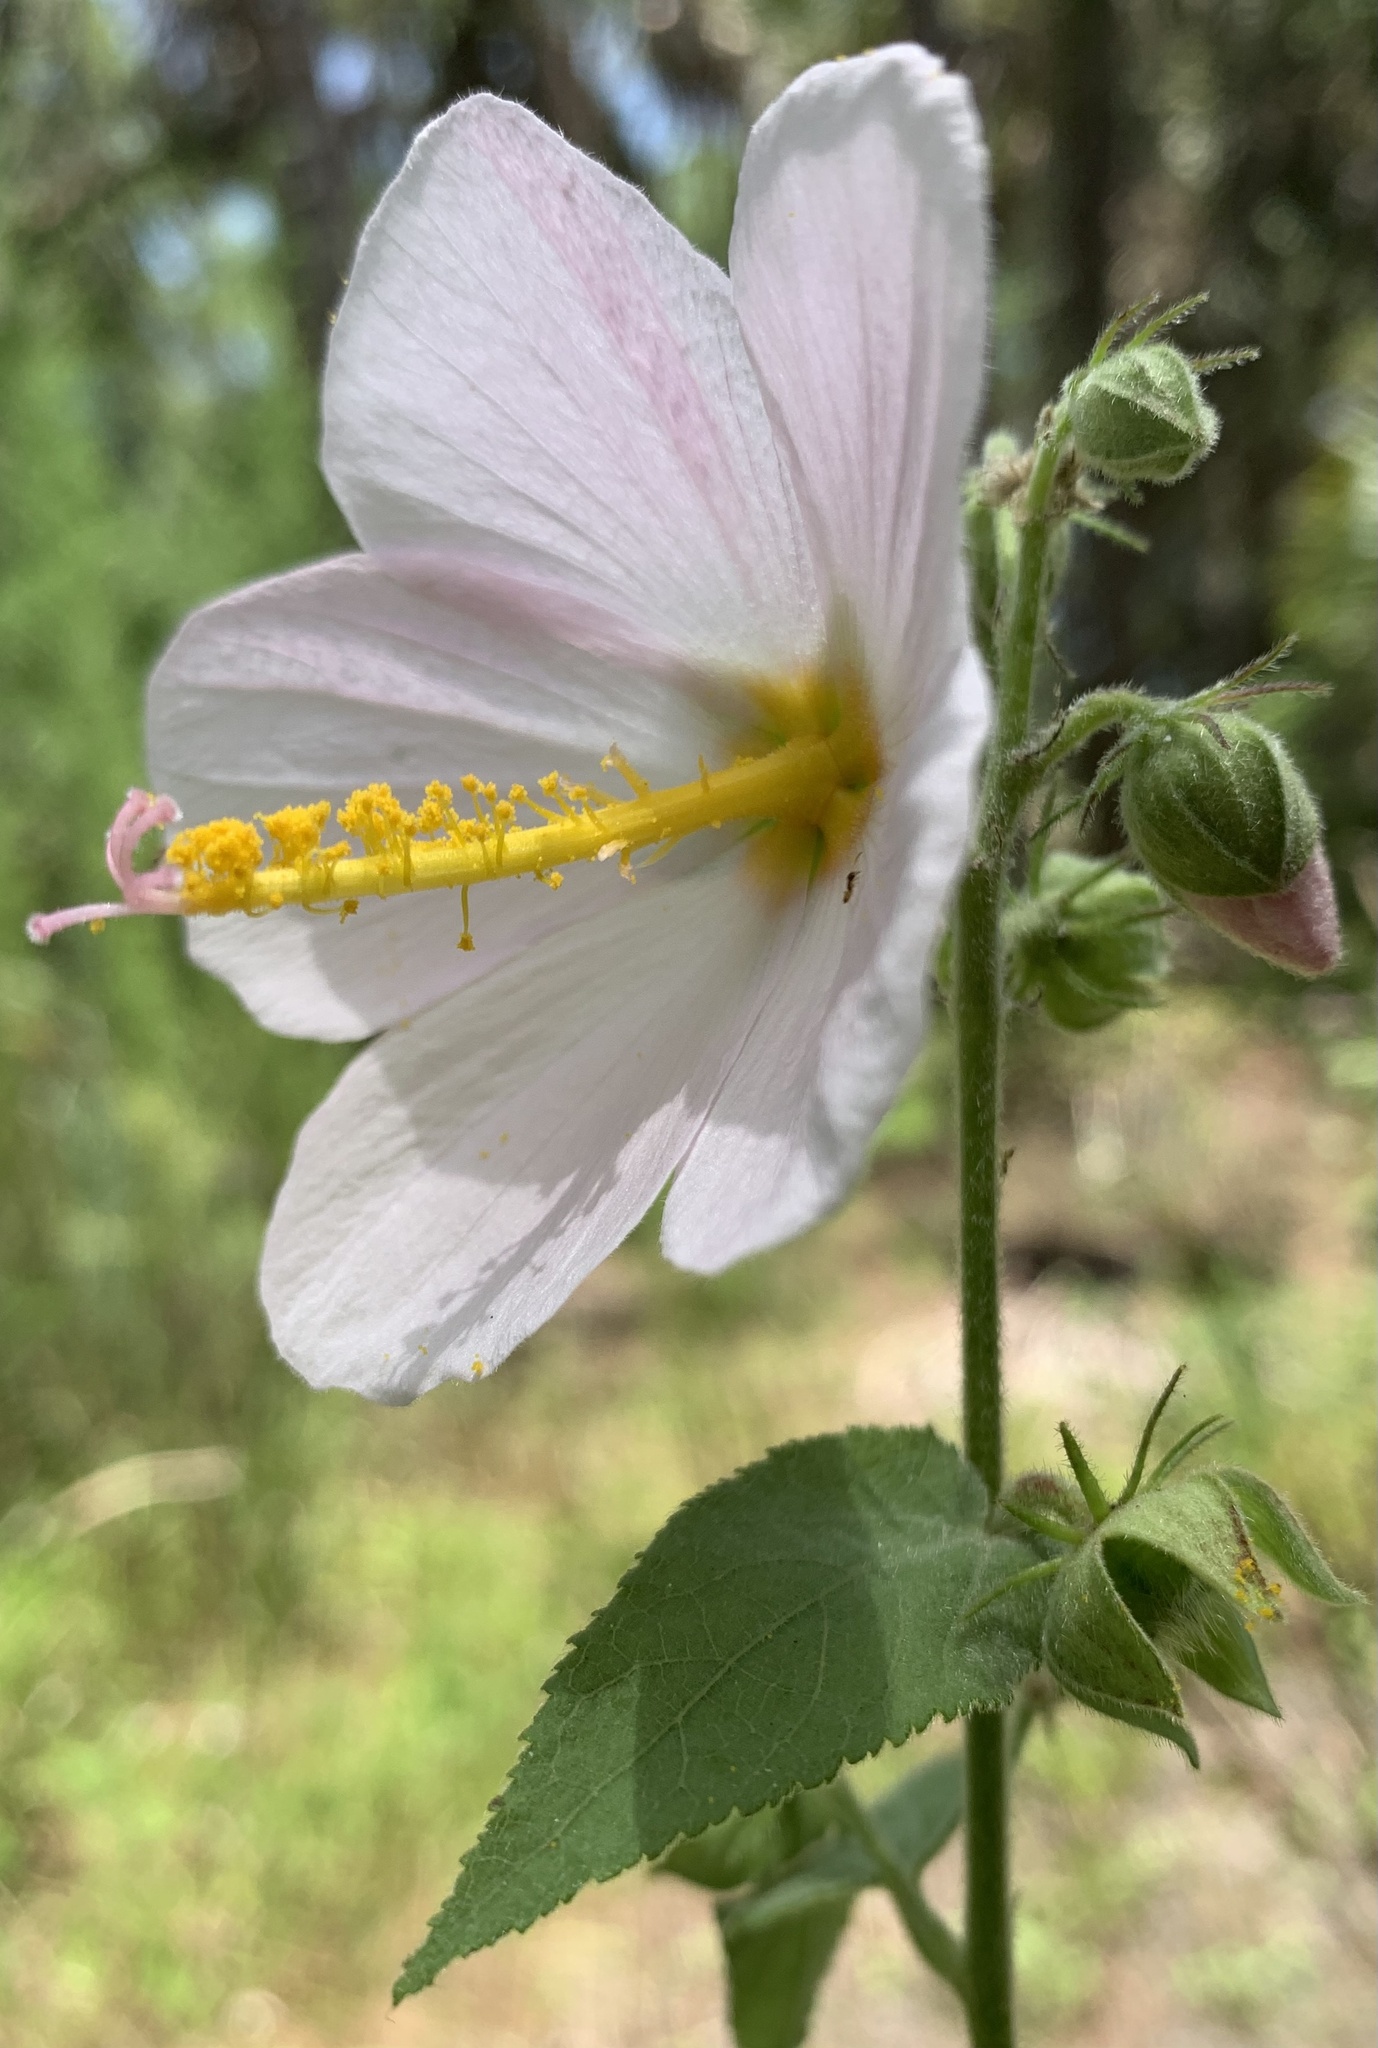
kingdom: Plantae
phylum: Tracheophyta
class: Magnoliopsida
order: Malvales
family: Malvaceae
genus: Kosteletzkya
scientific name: Kosteletzkya pentacarpos
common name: Virginia saltmarsh mallow
